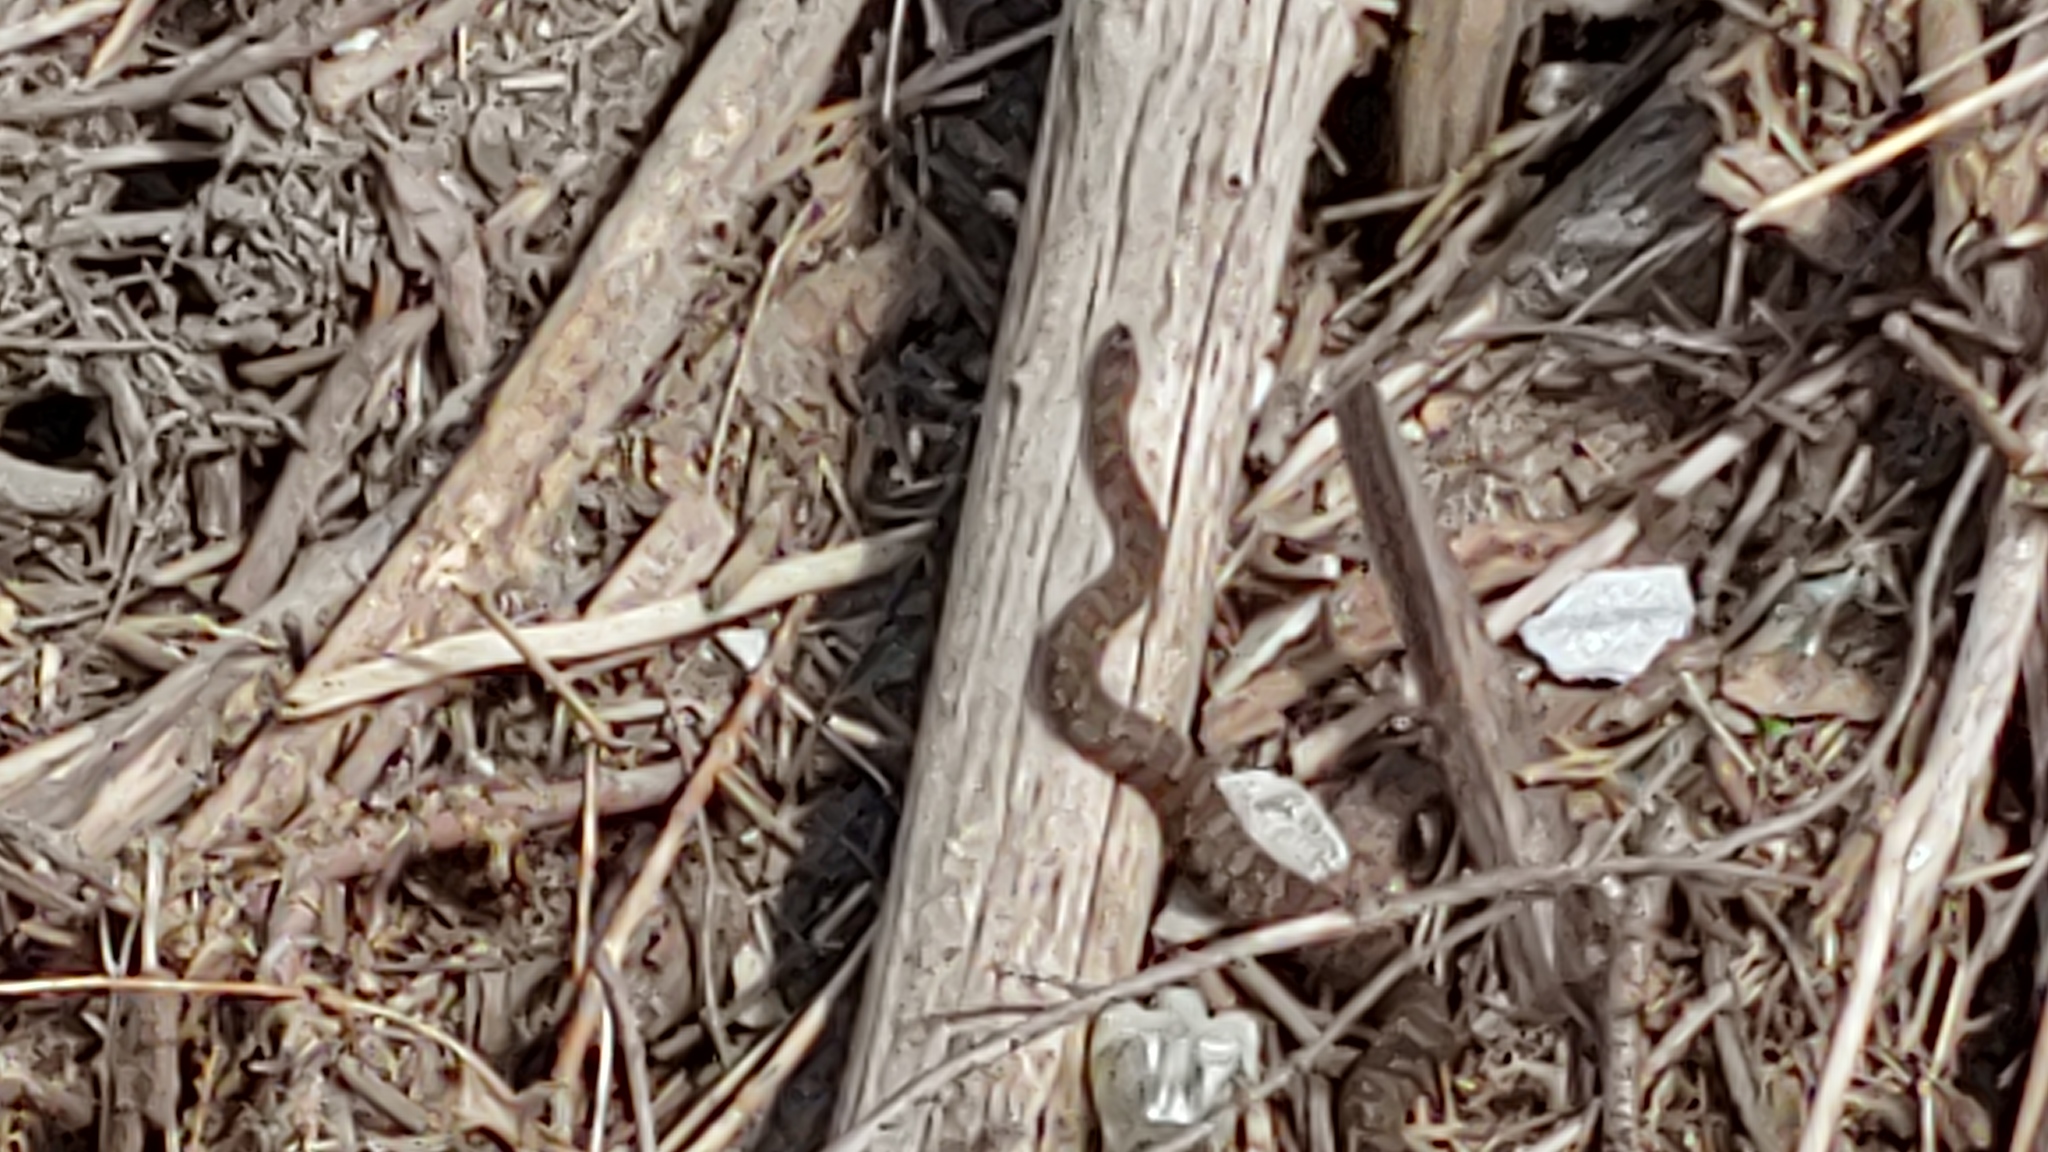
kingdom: Animalia
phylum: Chordata
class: Squamata
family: Colubridae
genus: Nerodia
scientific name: Nerodia sipedon
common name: Northern water snake
